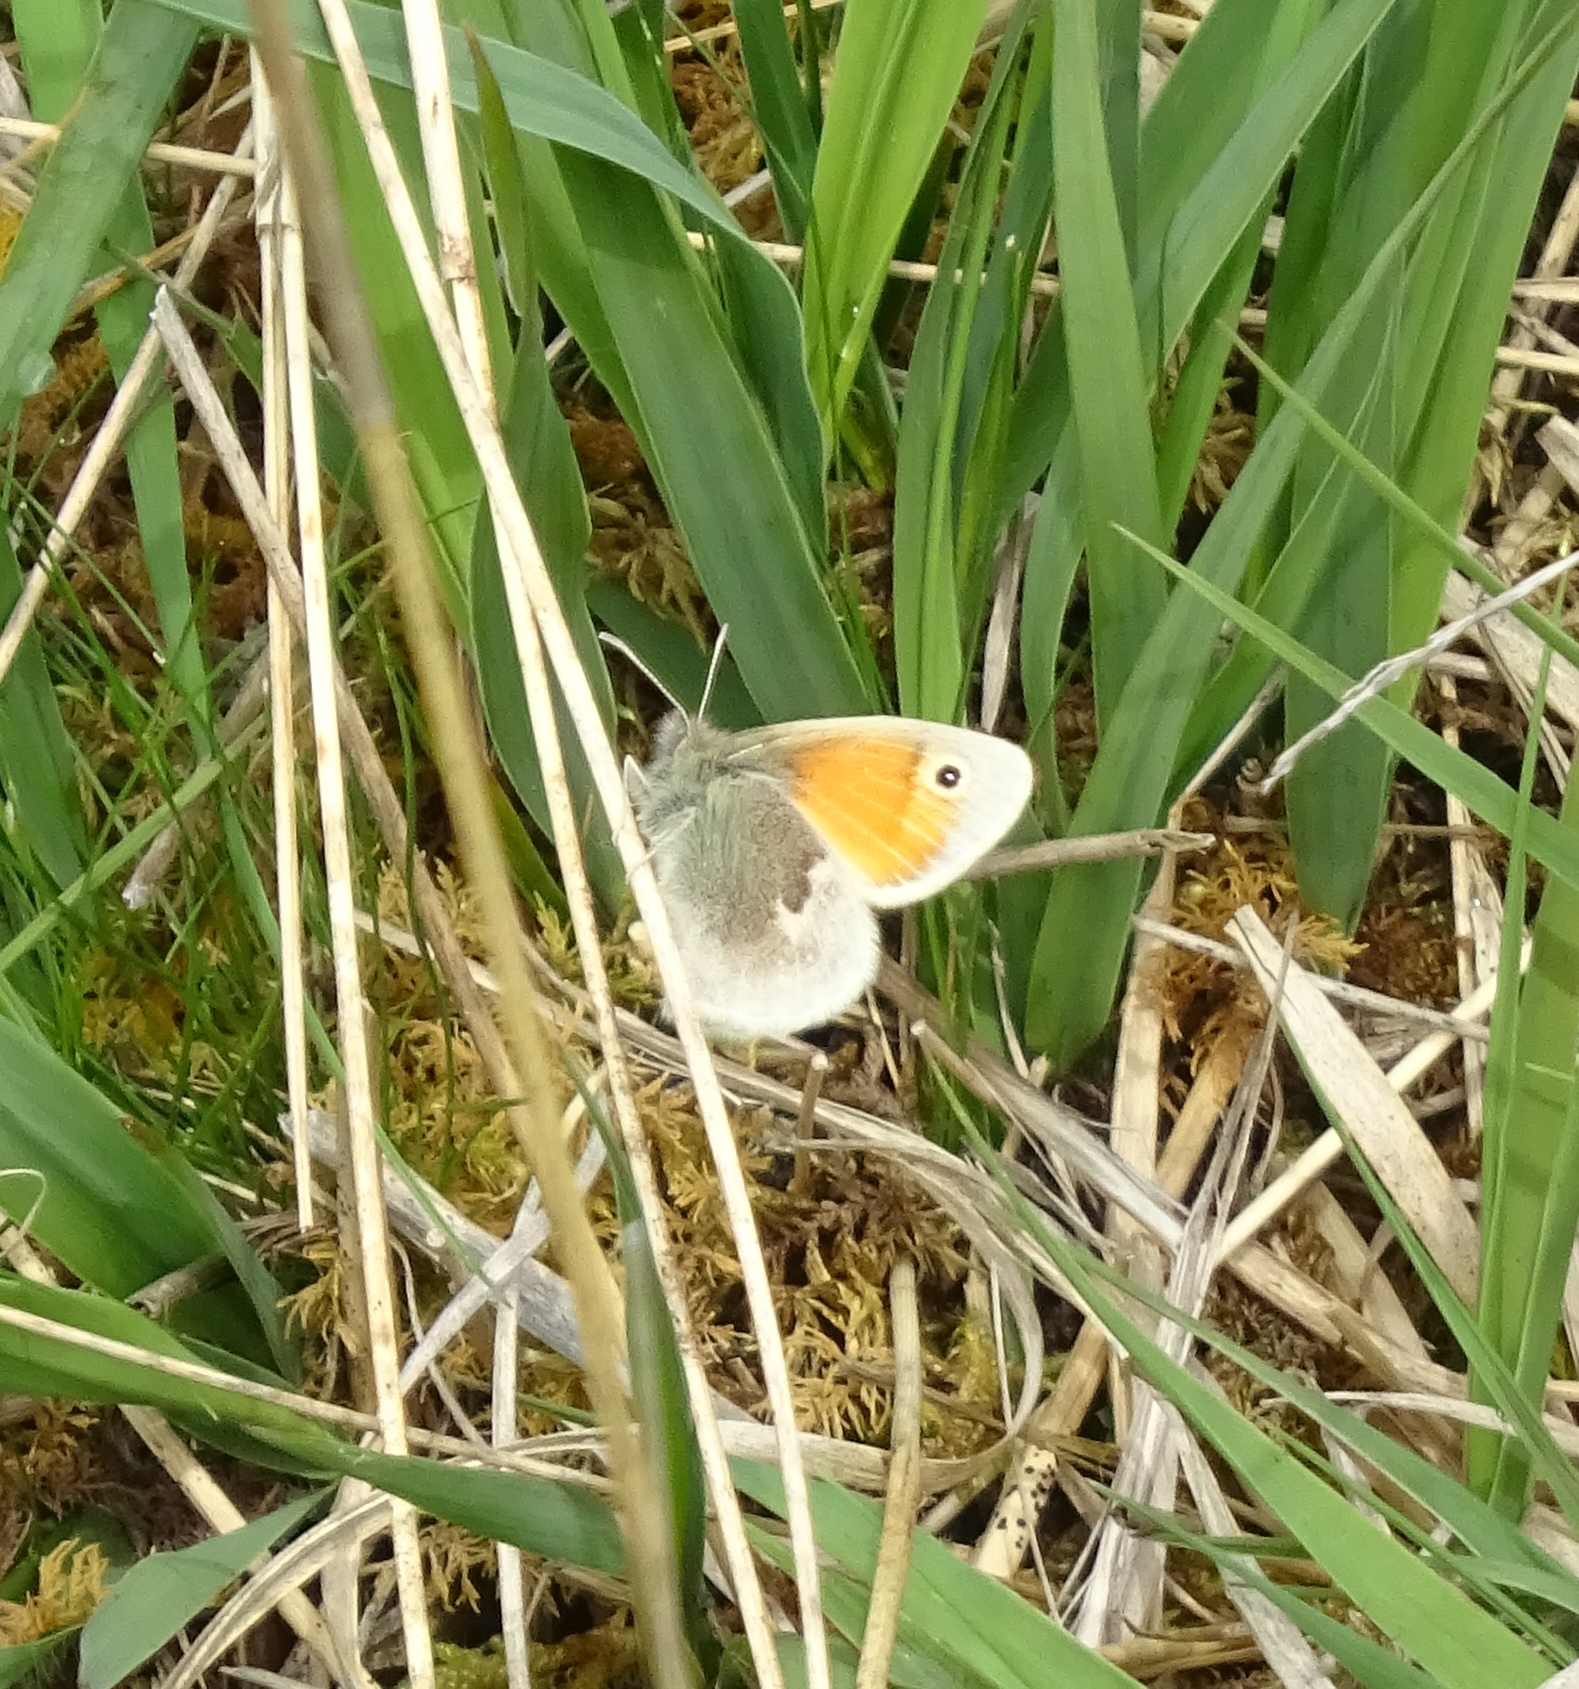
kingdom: Animalia
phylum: Arthropoda
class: Insecta
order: Lepidoptera
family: Nymphalidae
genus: Coenonympha
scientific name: Coenonympha pamphilus
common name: Small heath
